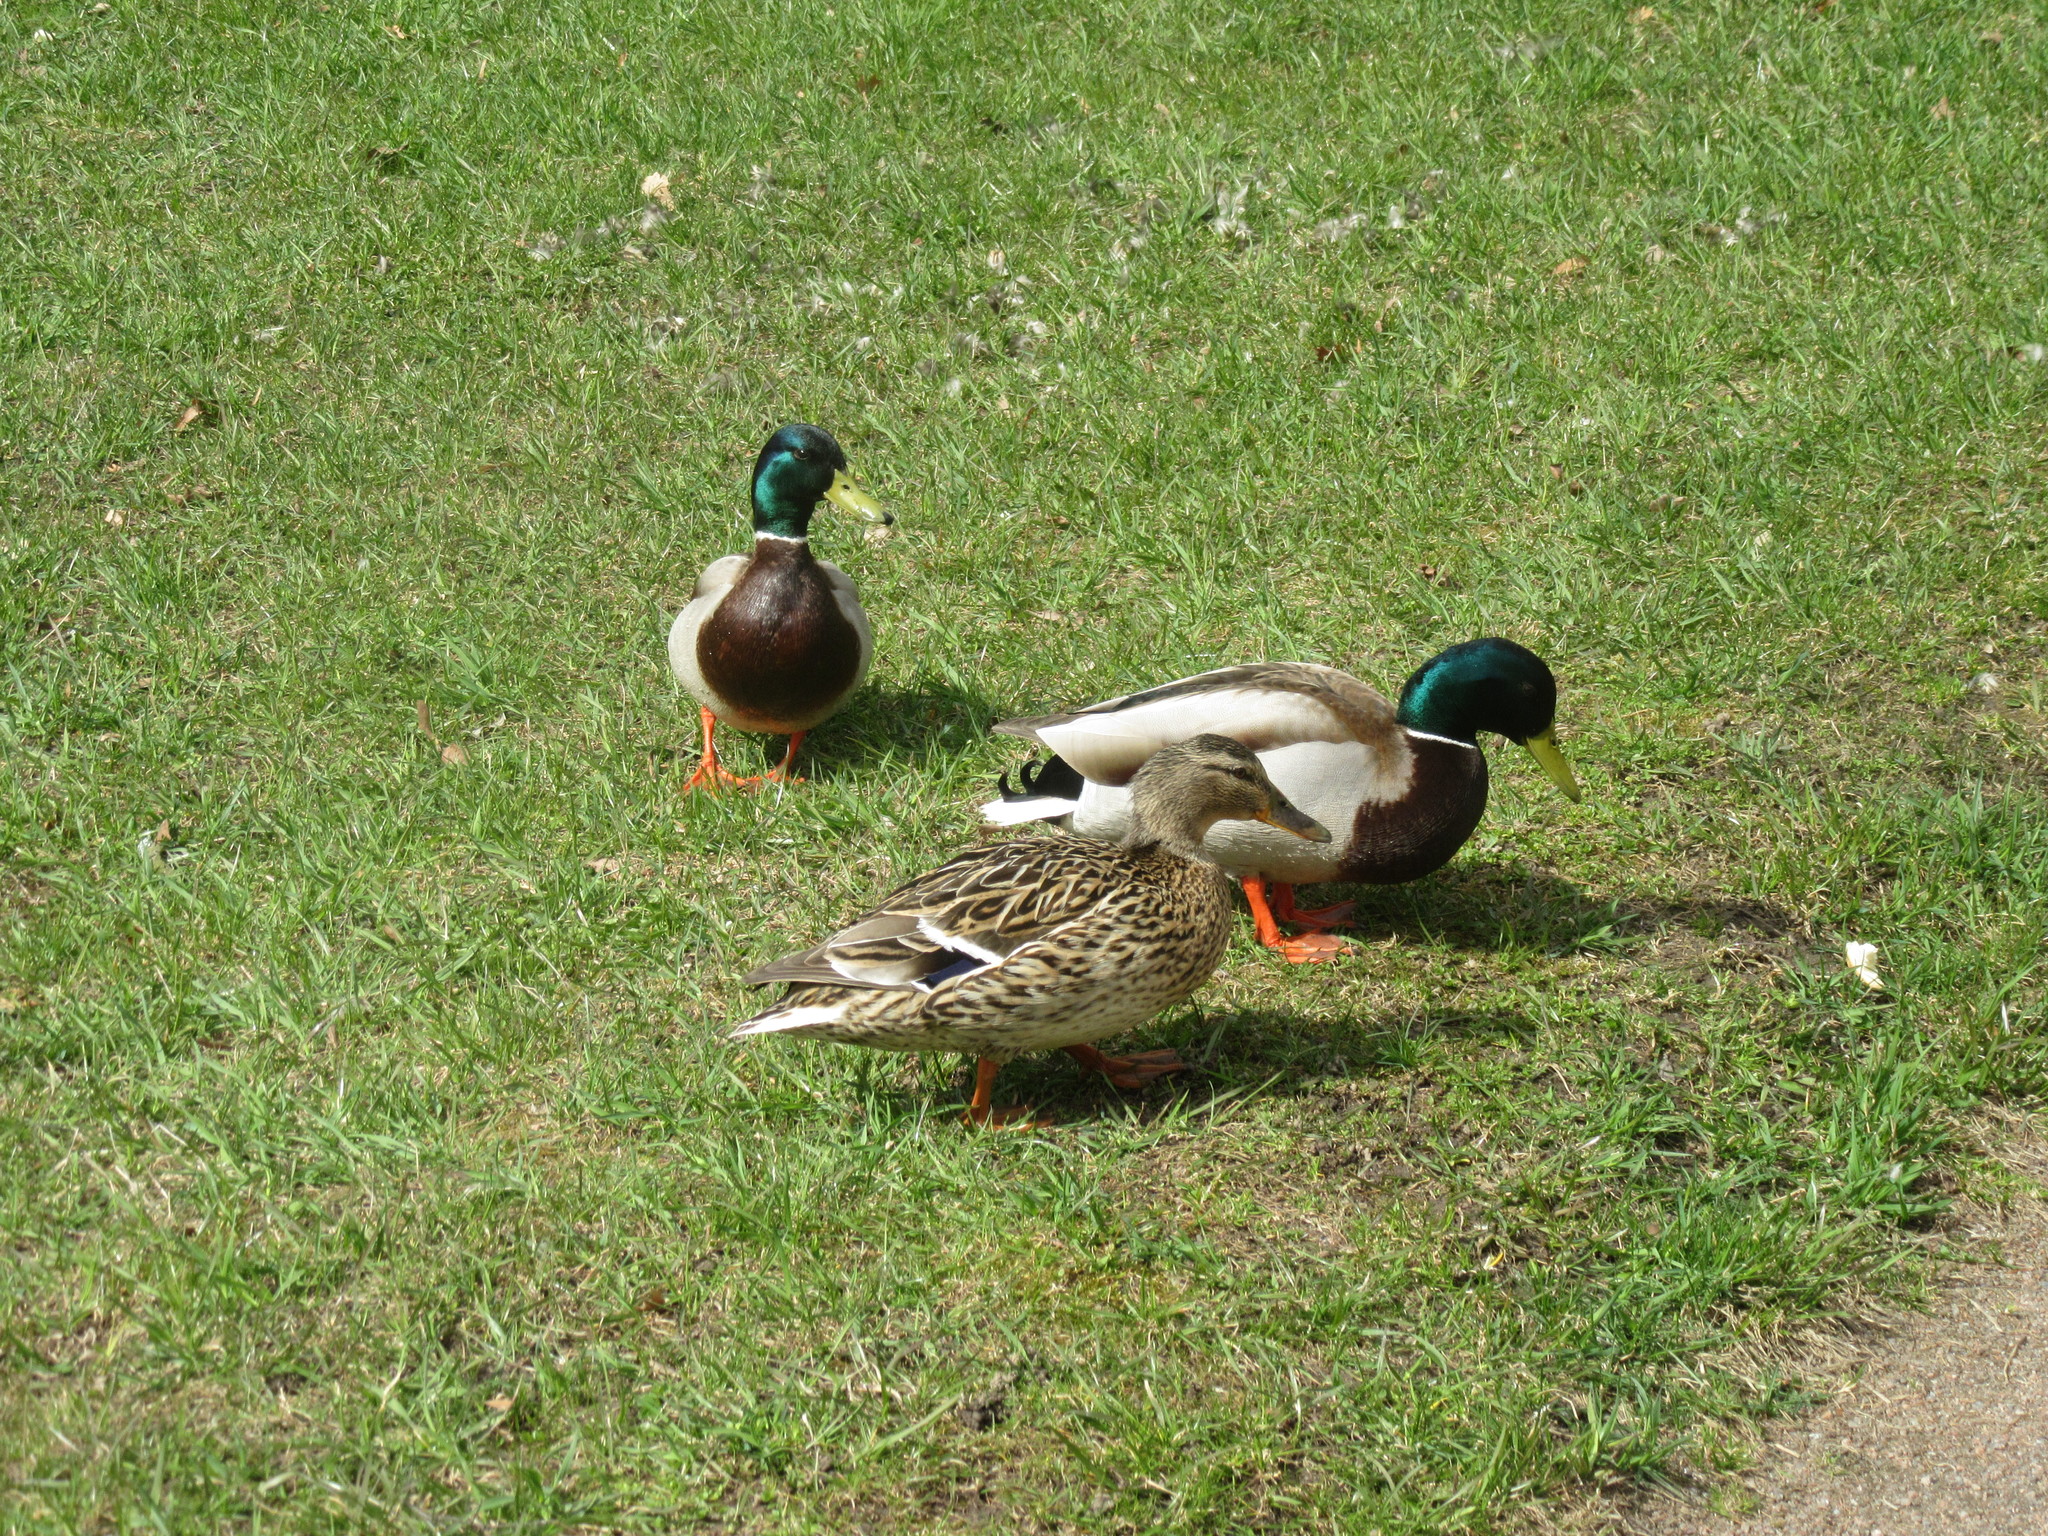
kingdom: Animalia
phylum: Chordata
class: Aves
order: Anseriformes
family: Anatidae
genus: Anas
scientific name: Anas platyrhynchos
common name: Mallard
